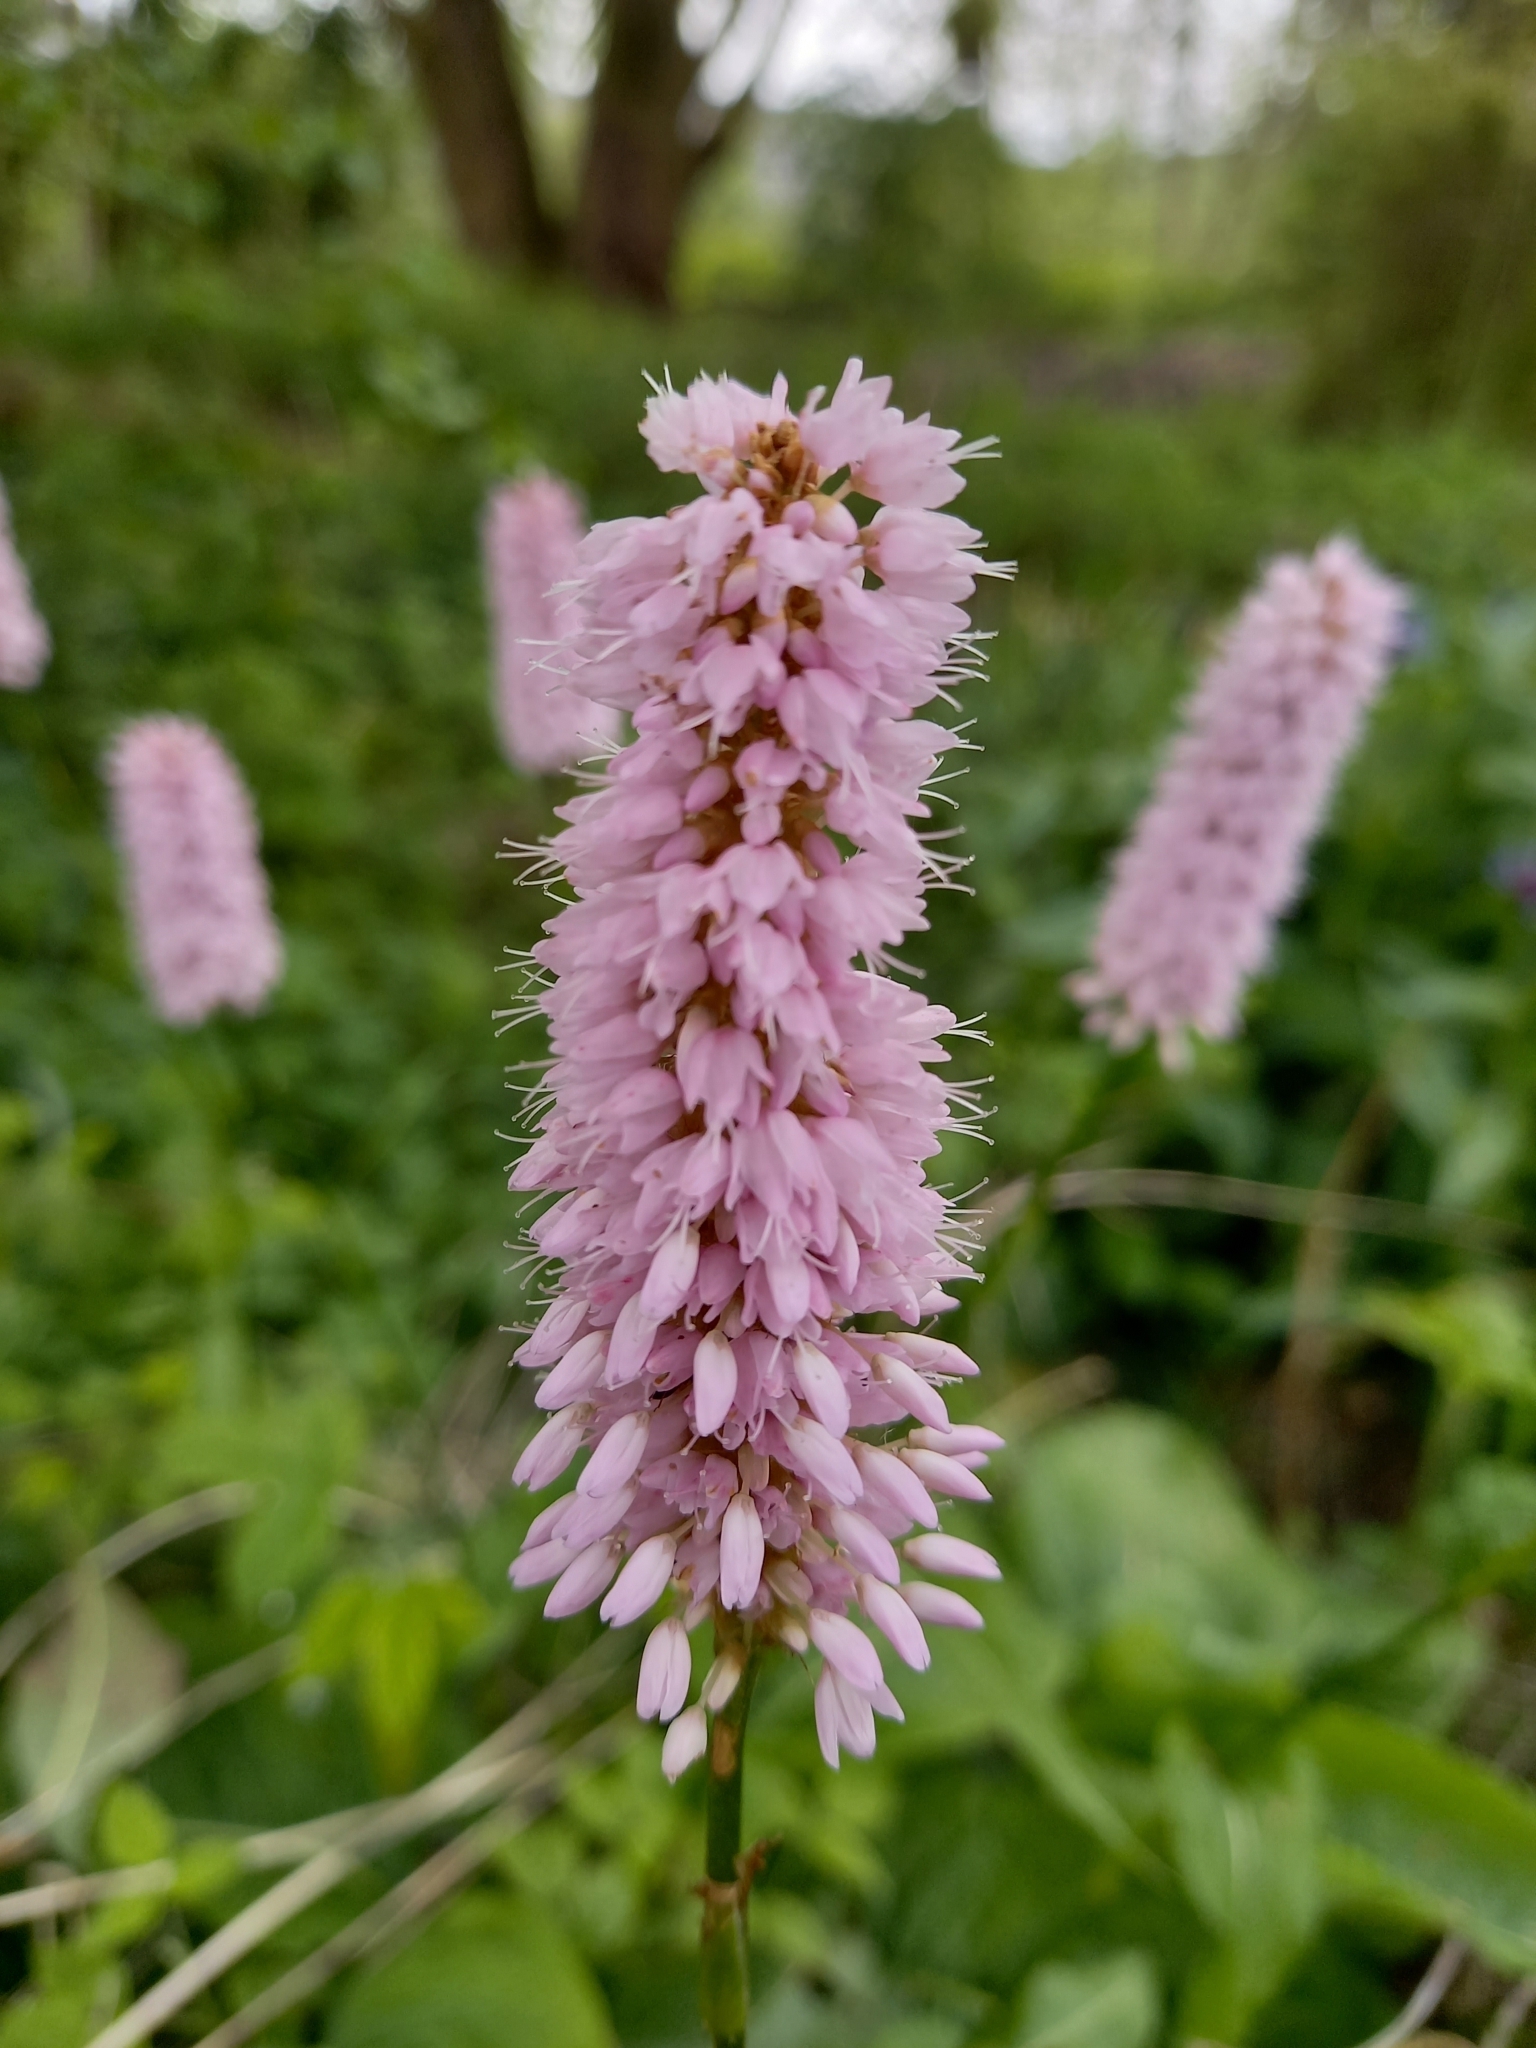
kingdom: Plantae
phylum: Tracheophyta
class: Magnoliopsida
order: Caryophyllales
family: Polygonaceae
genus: Bistorta
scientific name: Bistorta officinalis
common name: Common bistort
